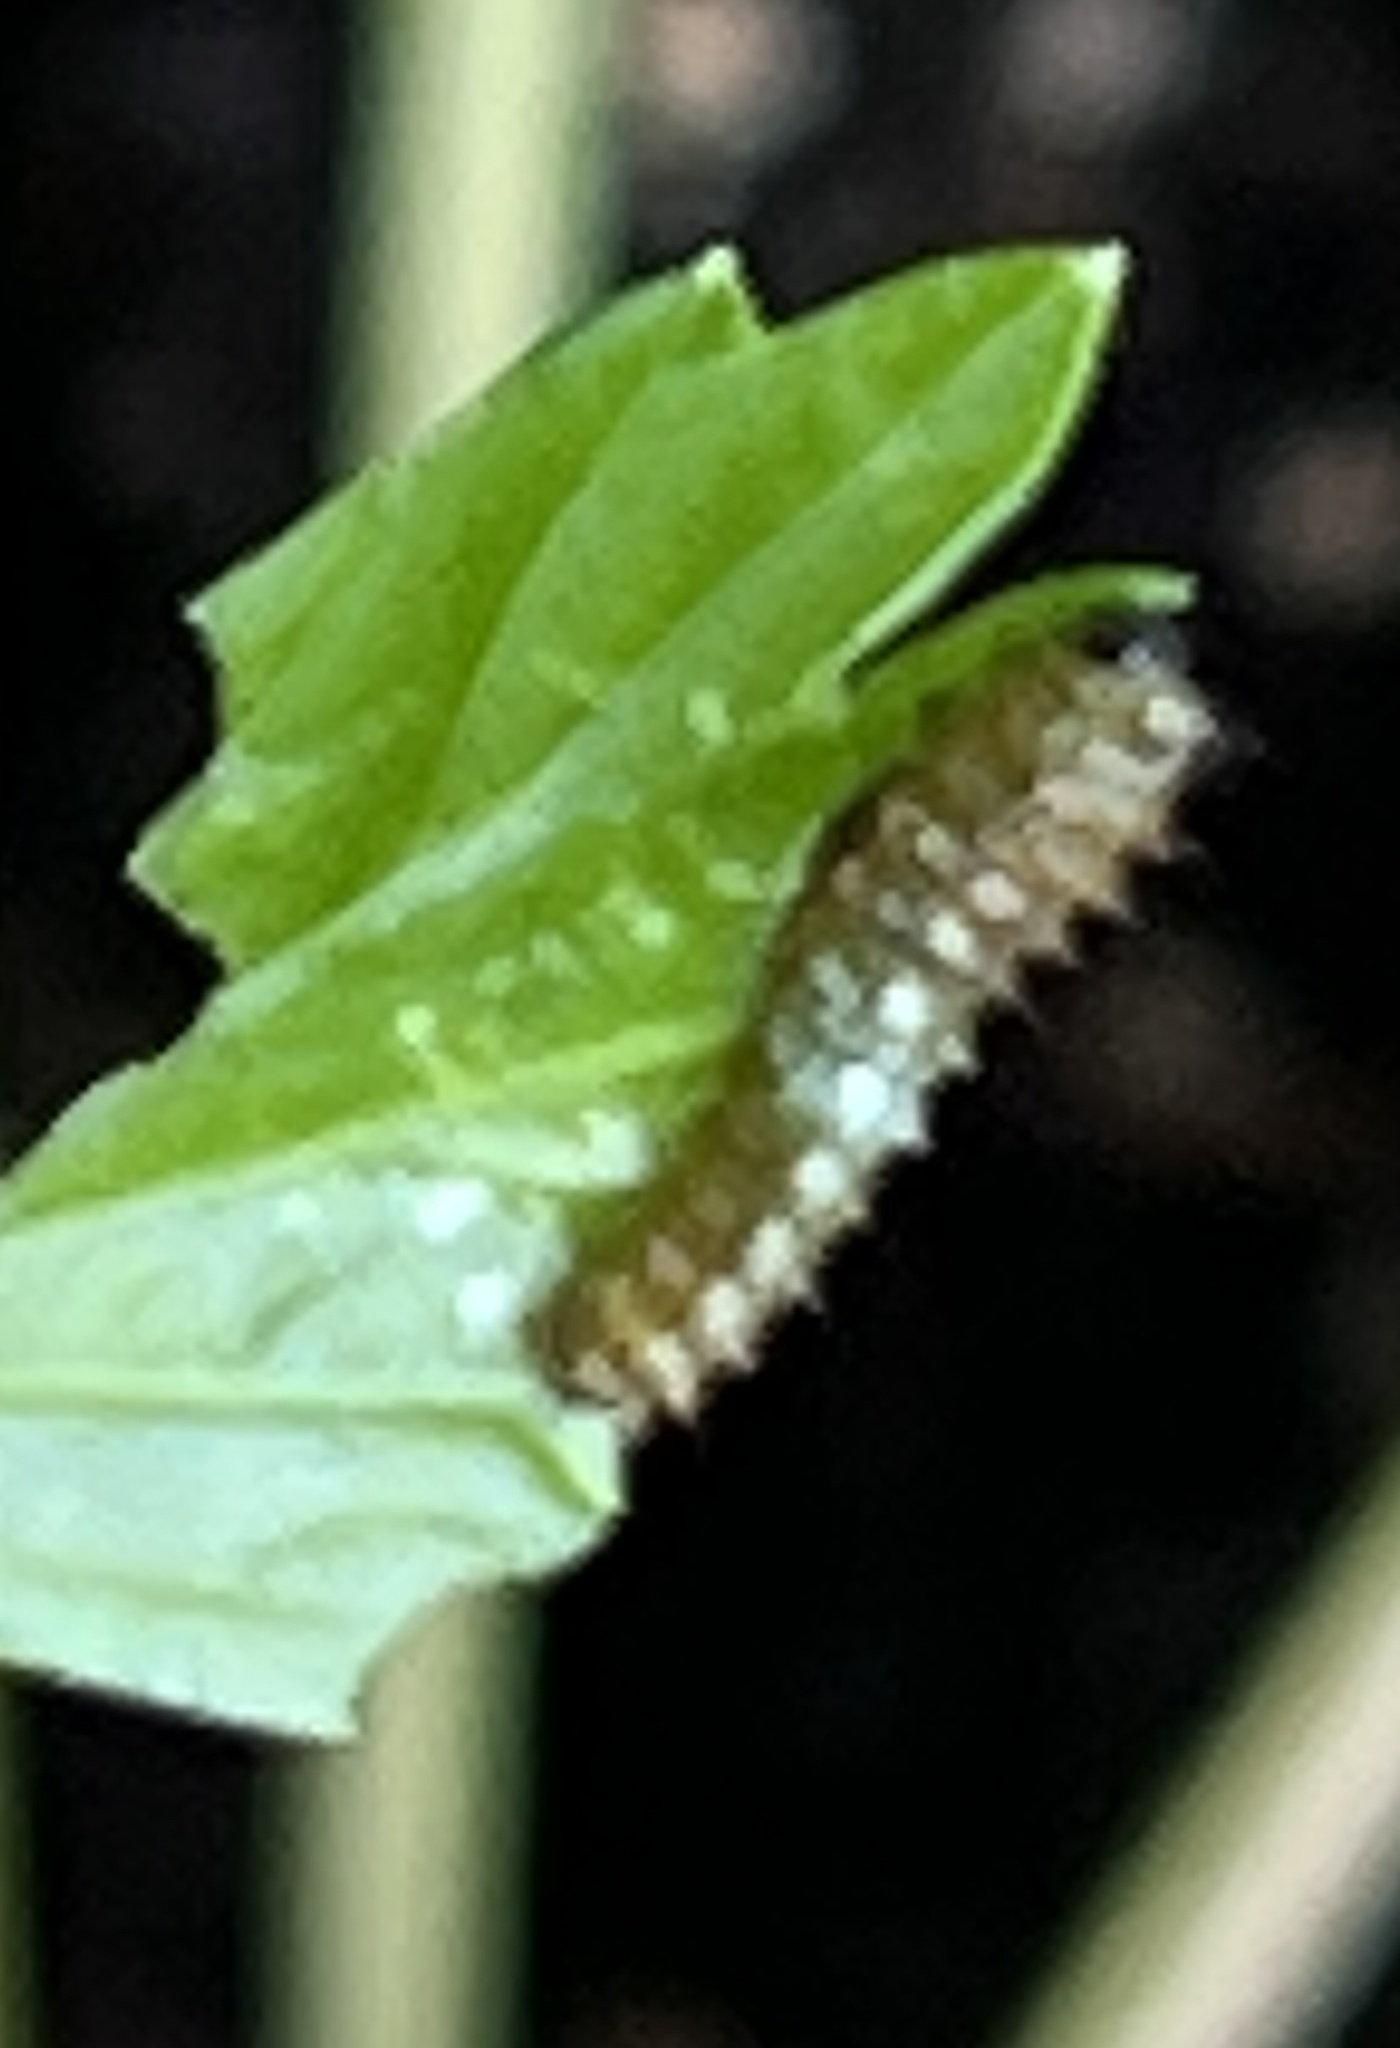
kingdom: Animalia
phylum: Arthropoda
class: Insecta
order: Lepidoptera
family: Papilionidae
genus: Papilio
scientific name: Papilio polyxenes
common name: Black swallowtail
